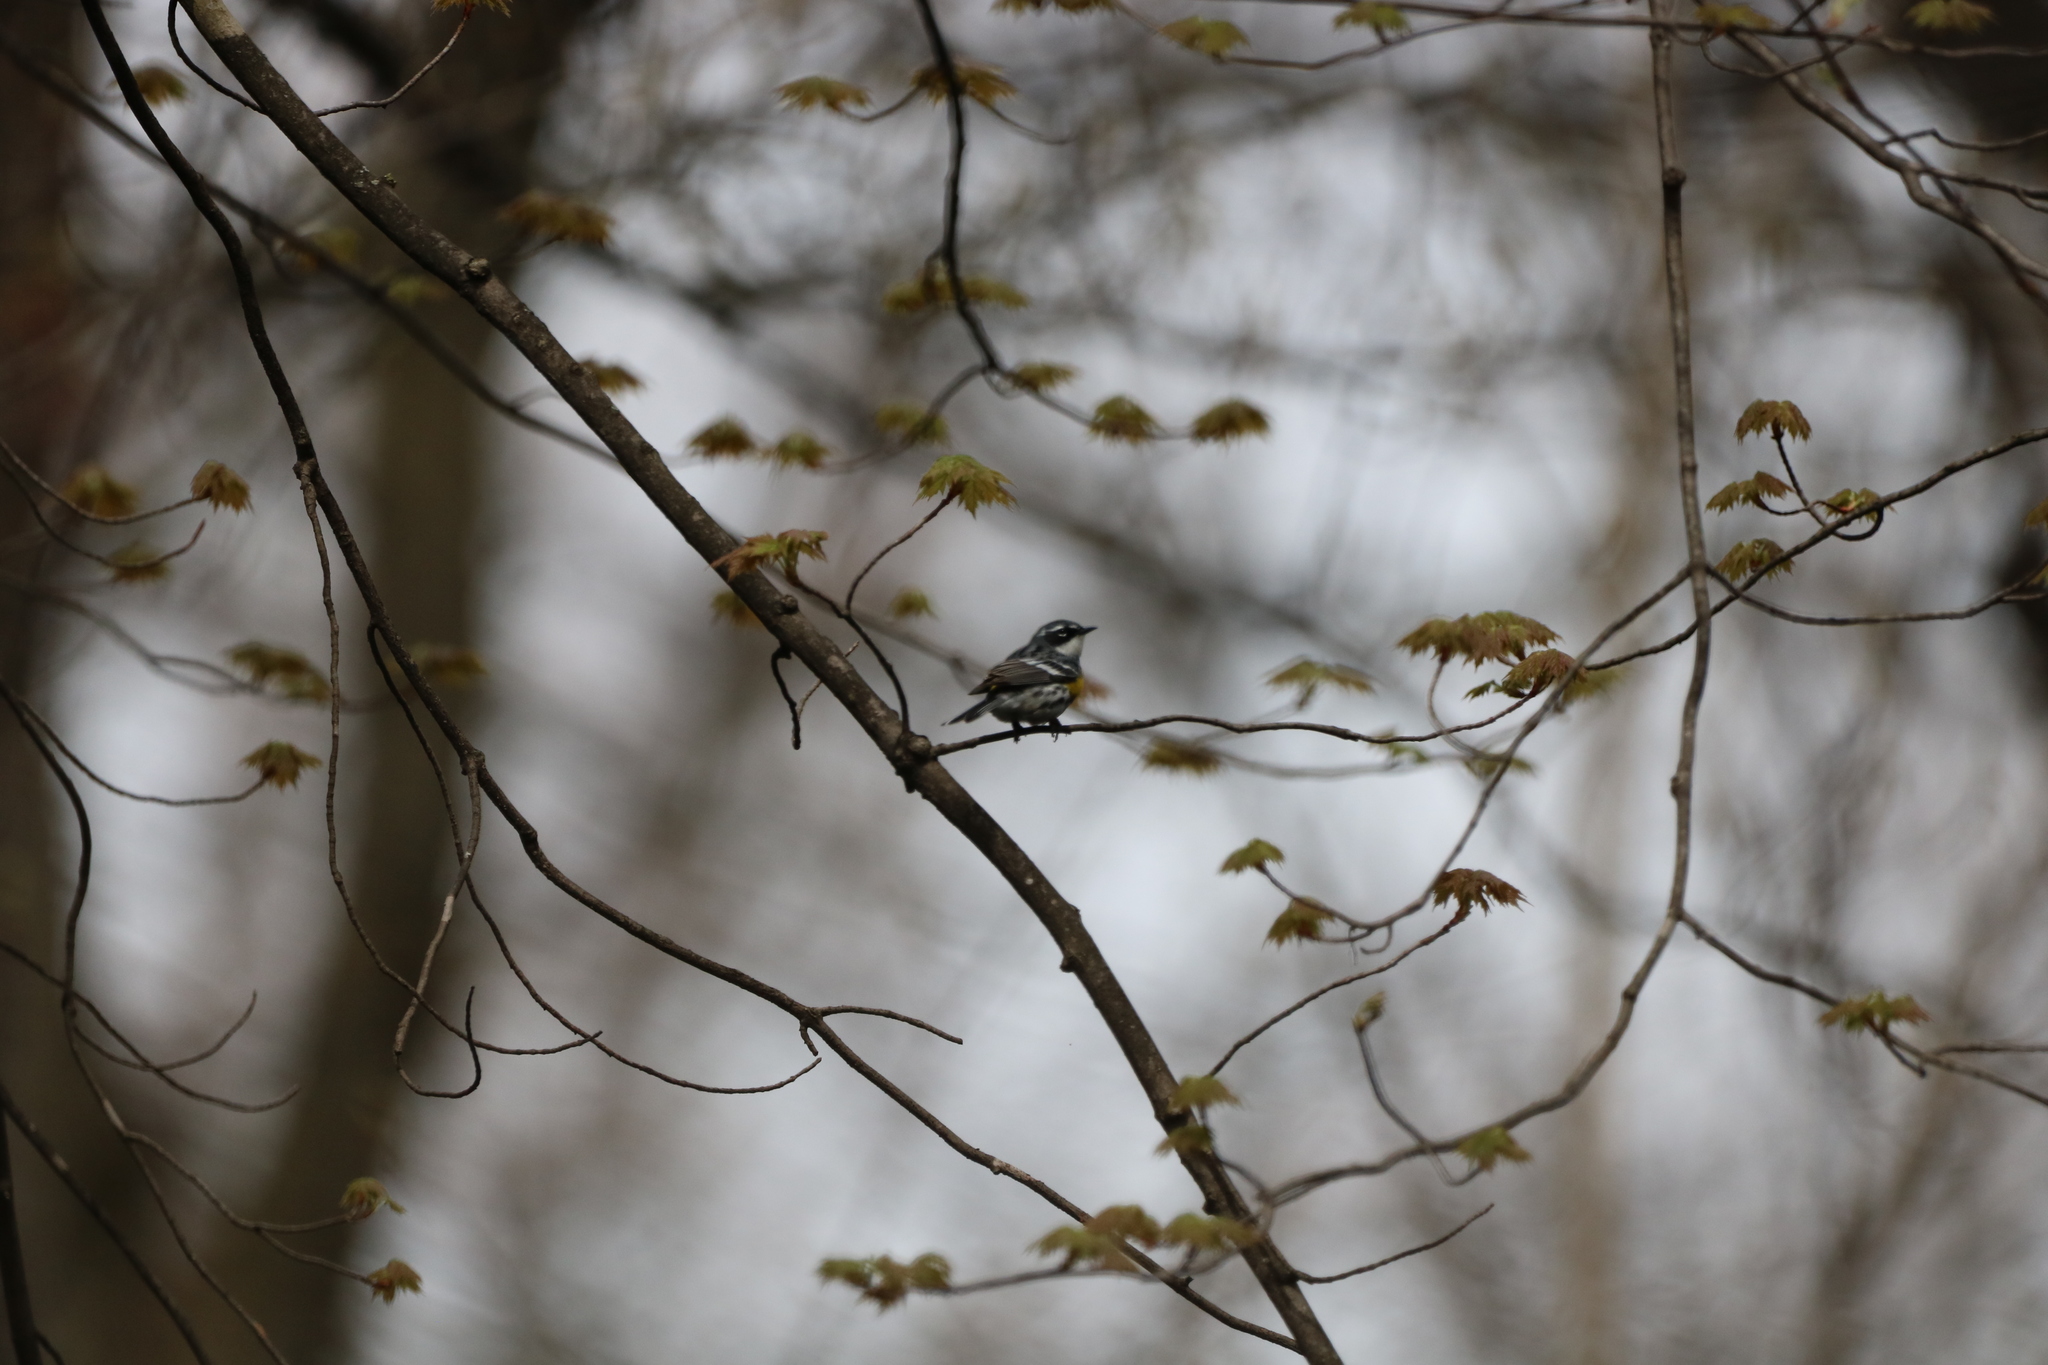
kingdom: Animalia
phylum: Chordata
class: Aves
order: Passeriformes
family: Parulidae
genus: Setophaga
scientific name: Setophaga coronata
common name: Myrtle warbler
